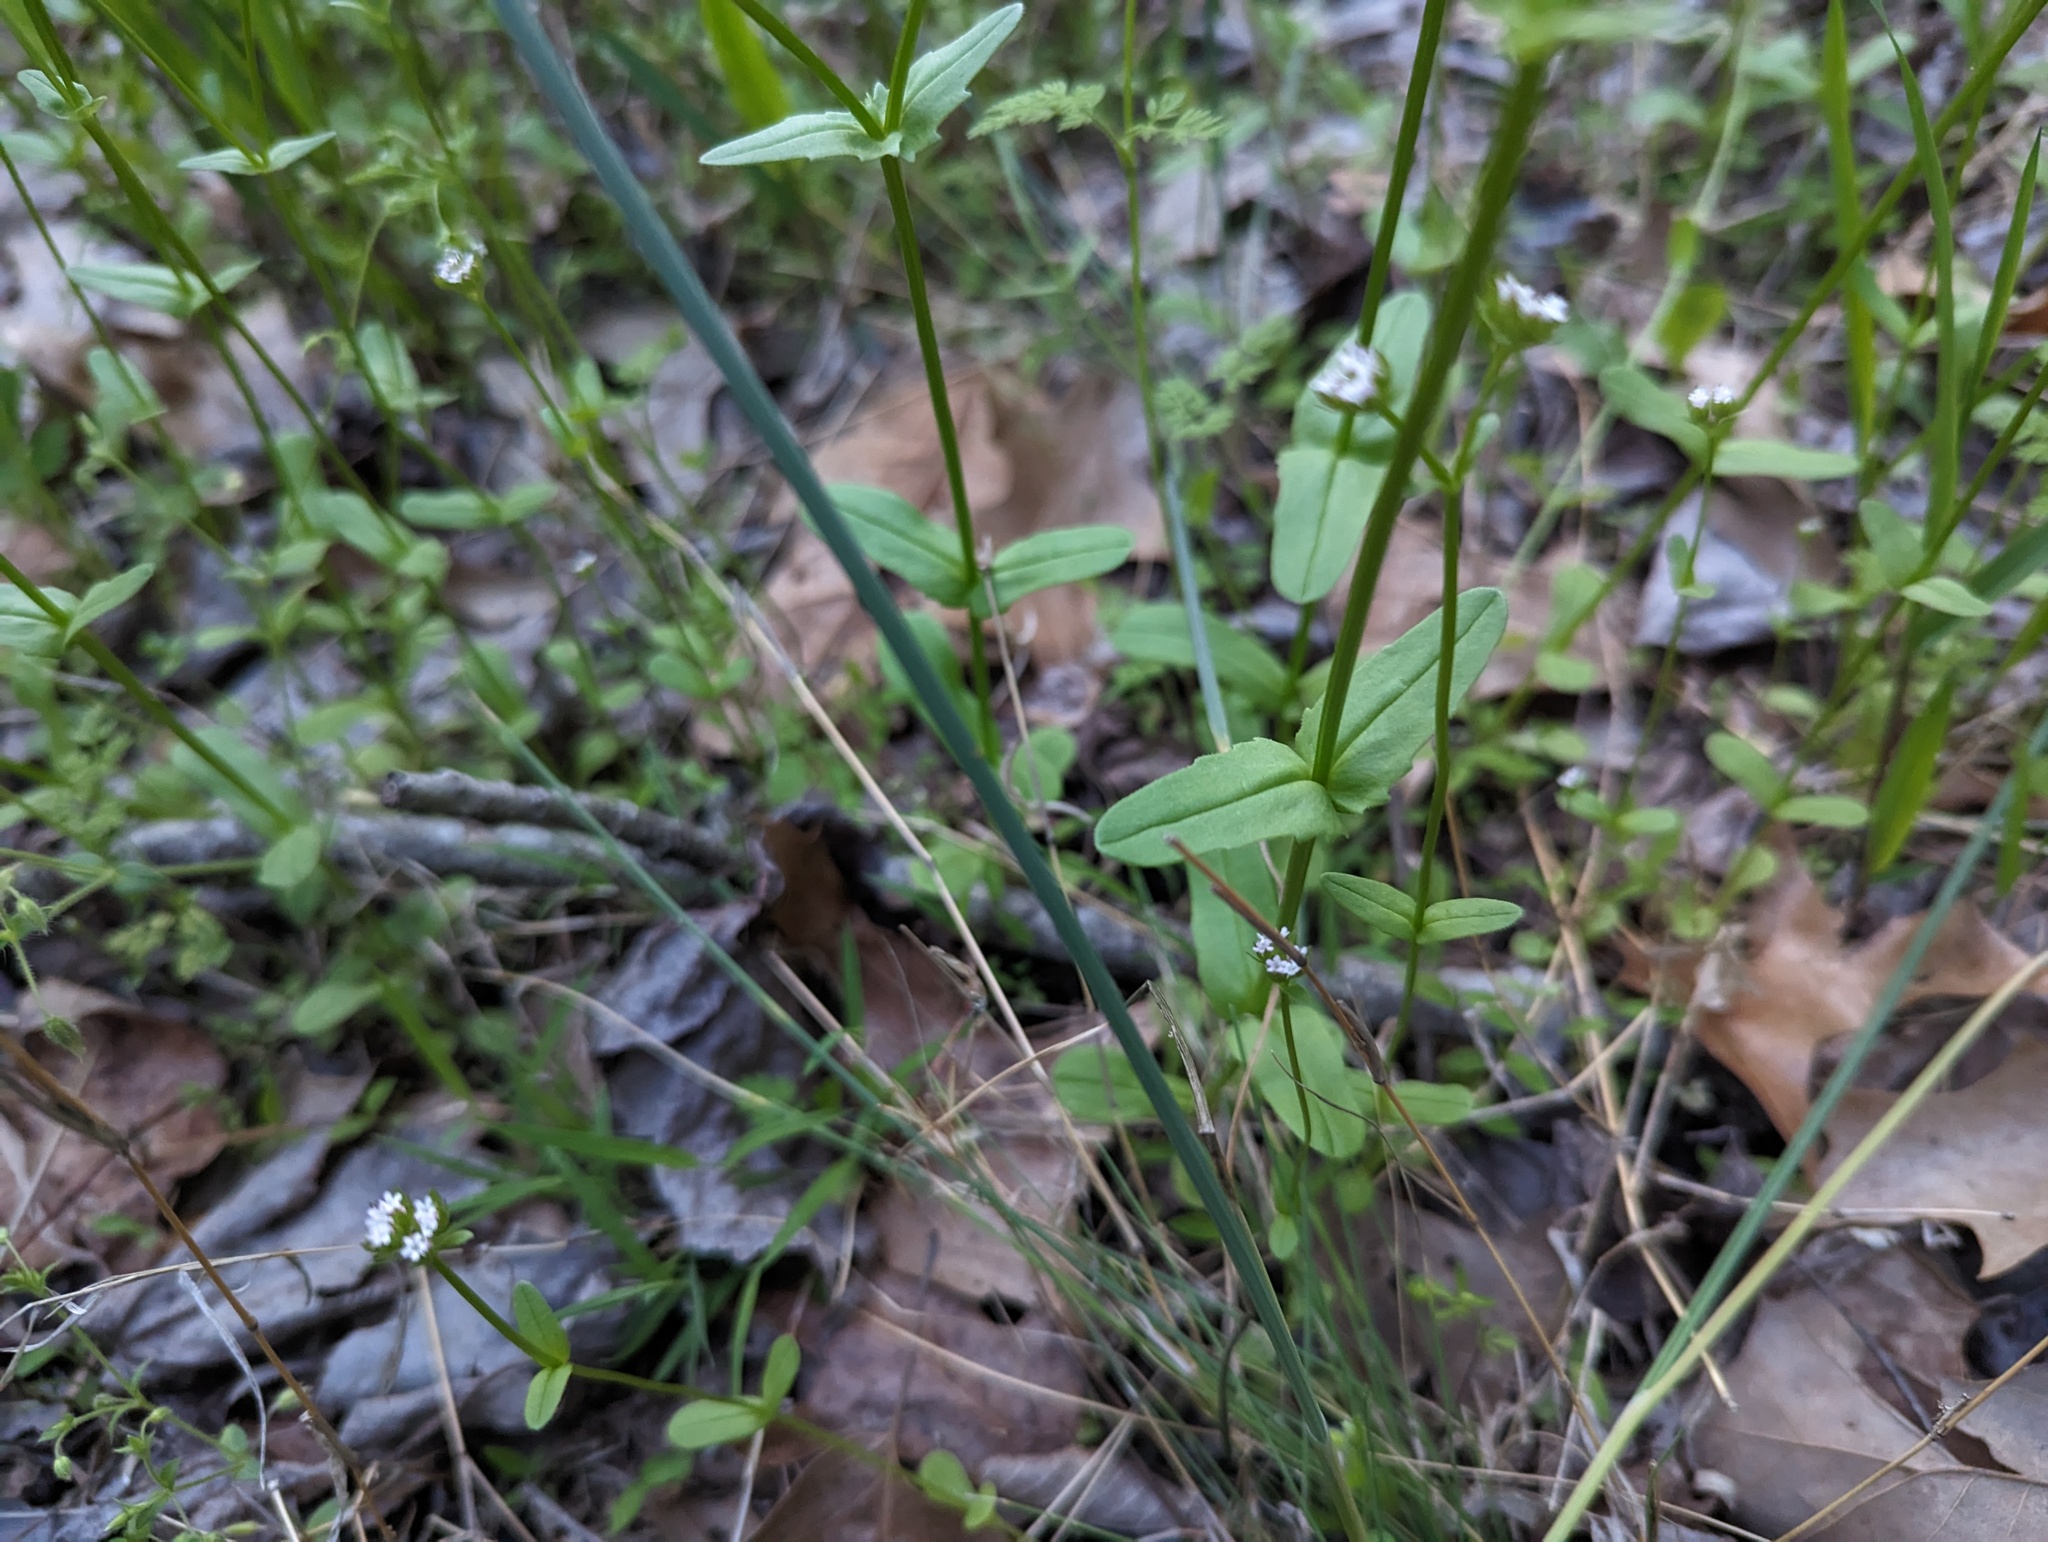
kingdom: Plantae
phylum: Tracheophyta
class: Magnoliopsida
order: Dipsacales
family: Caprifoliaceae
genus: Valerianella
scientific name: Valerianella radiata
